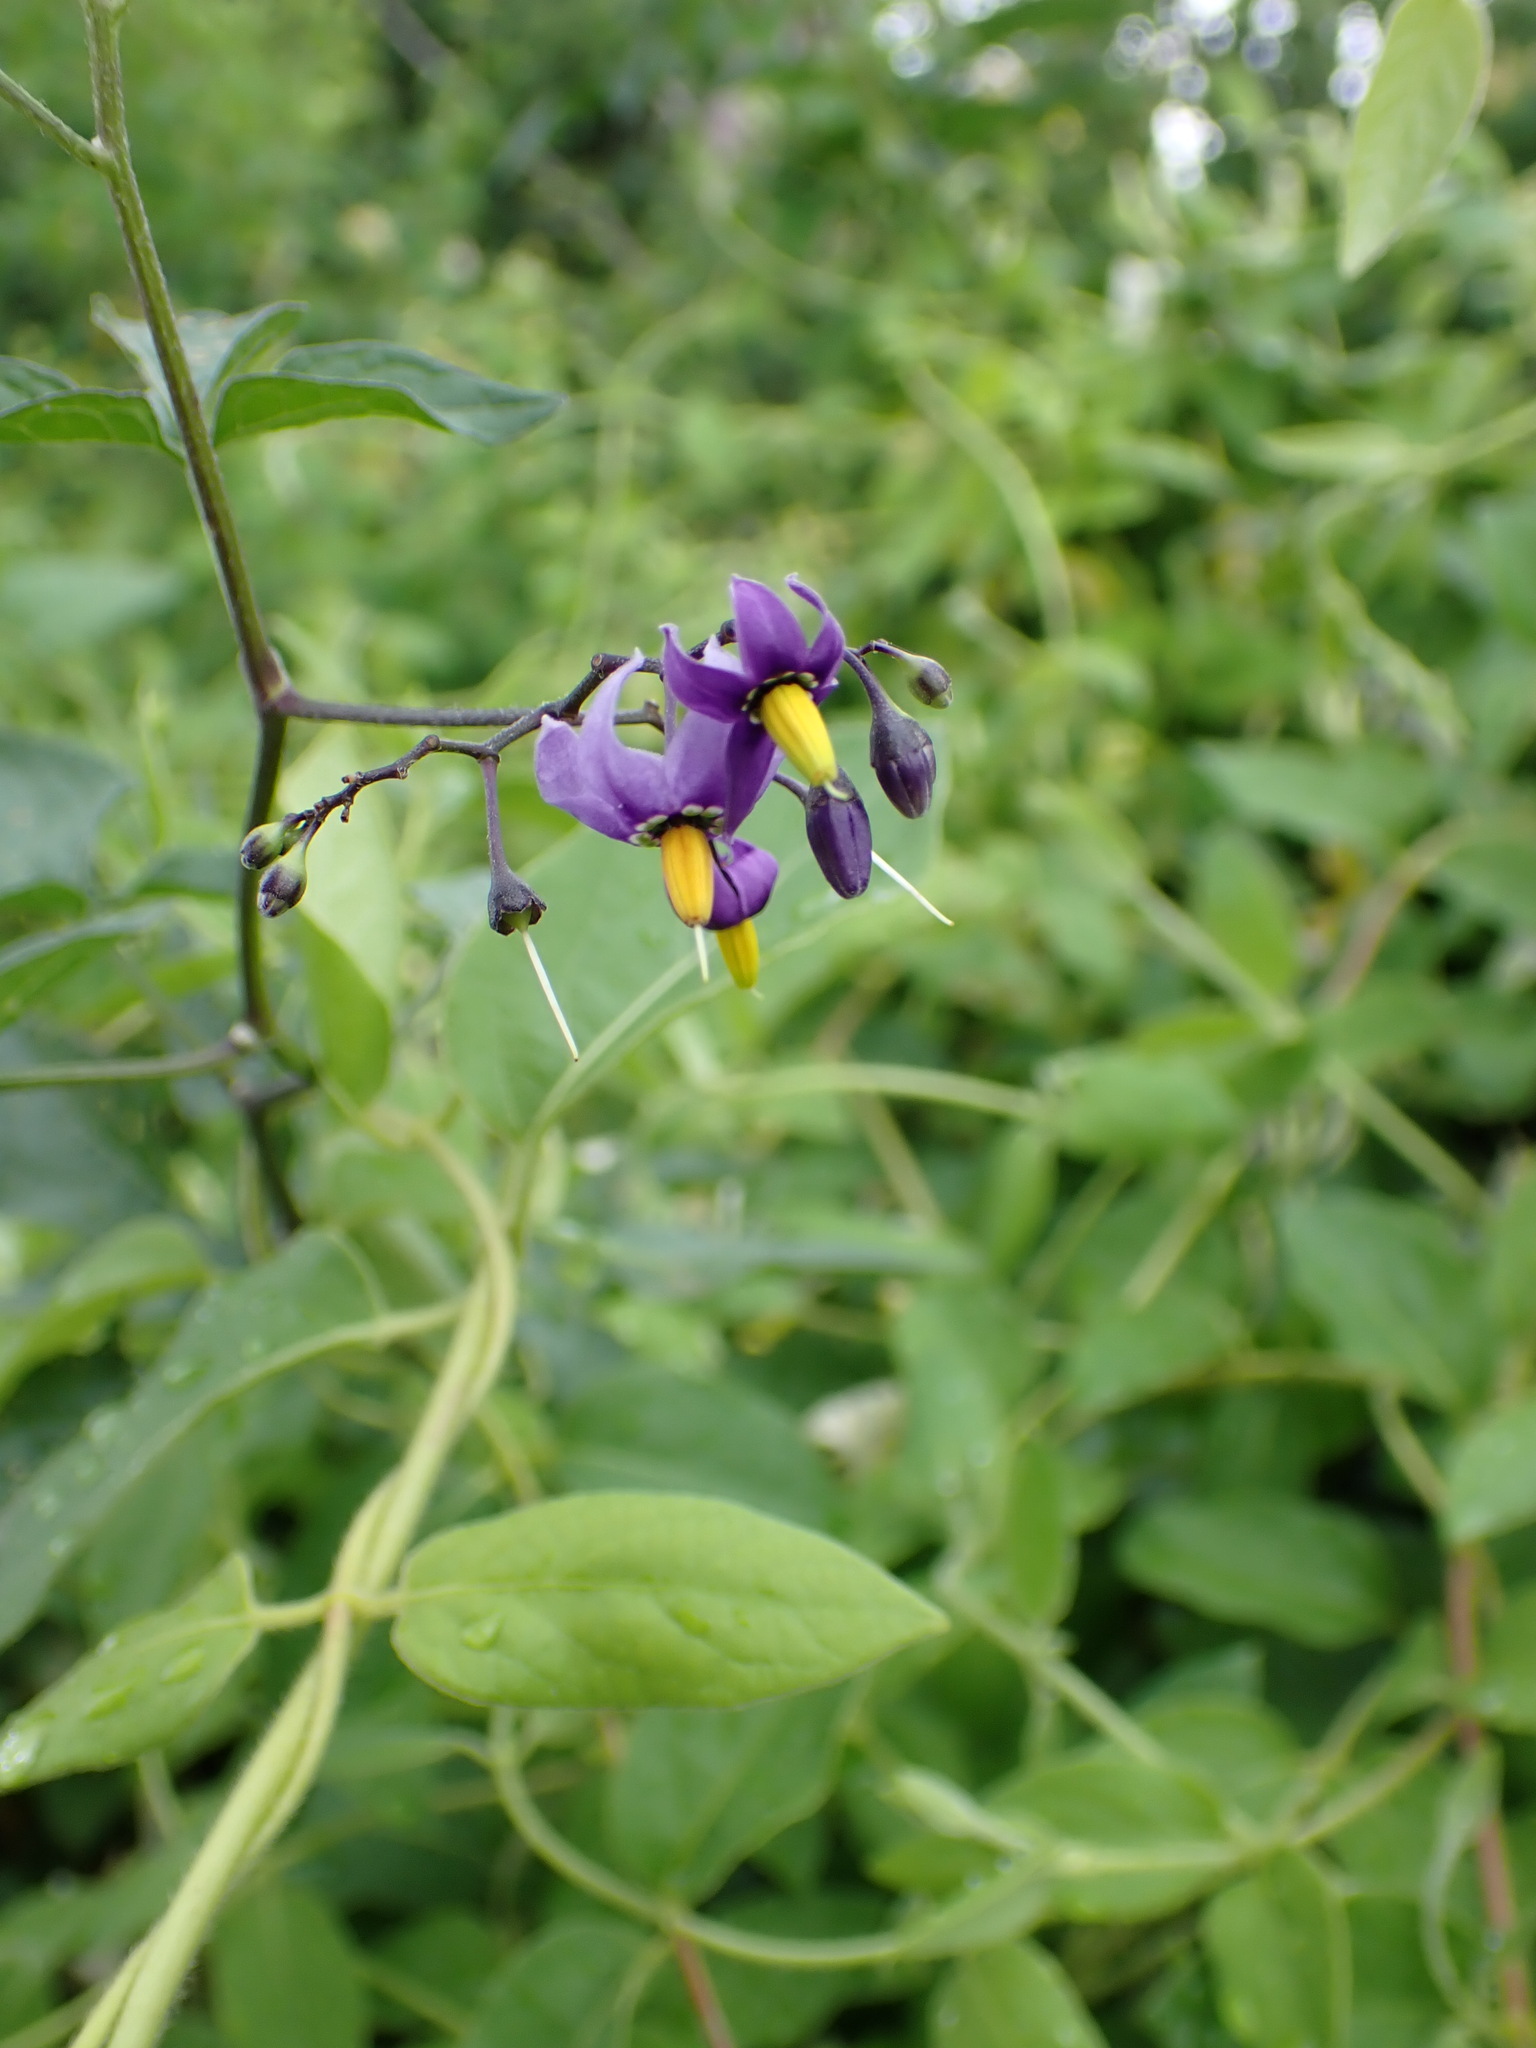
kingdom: Plantae
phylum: Tracheophyta
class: Magnoliopsida
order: Solanales
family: Solanaceae
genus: Solanum
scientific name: Solanum dulcamara
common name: Climbing nightshade
